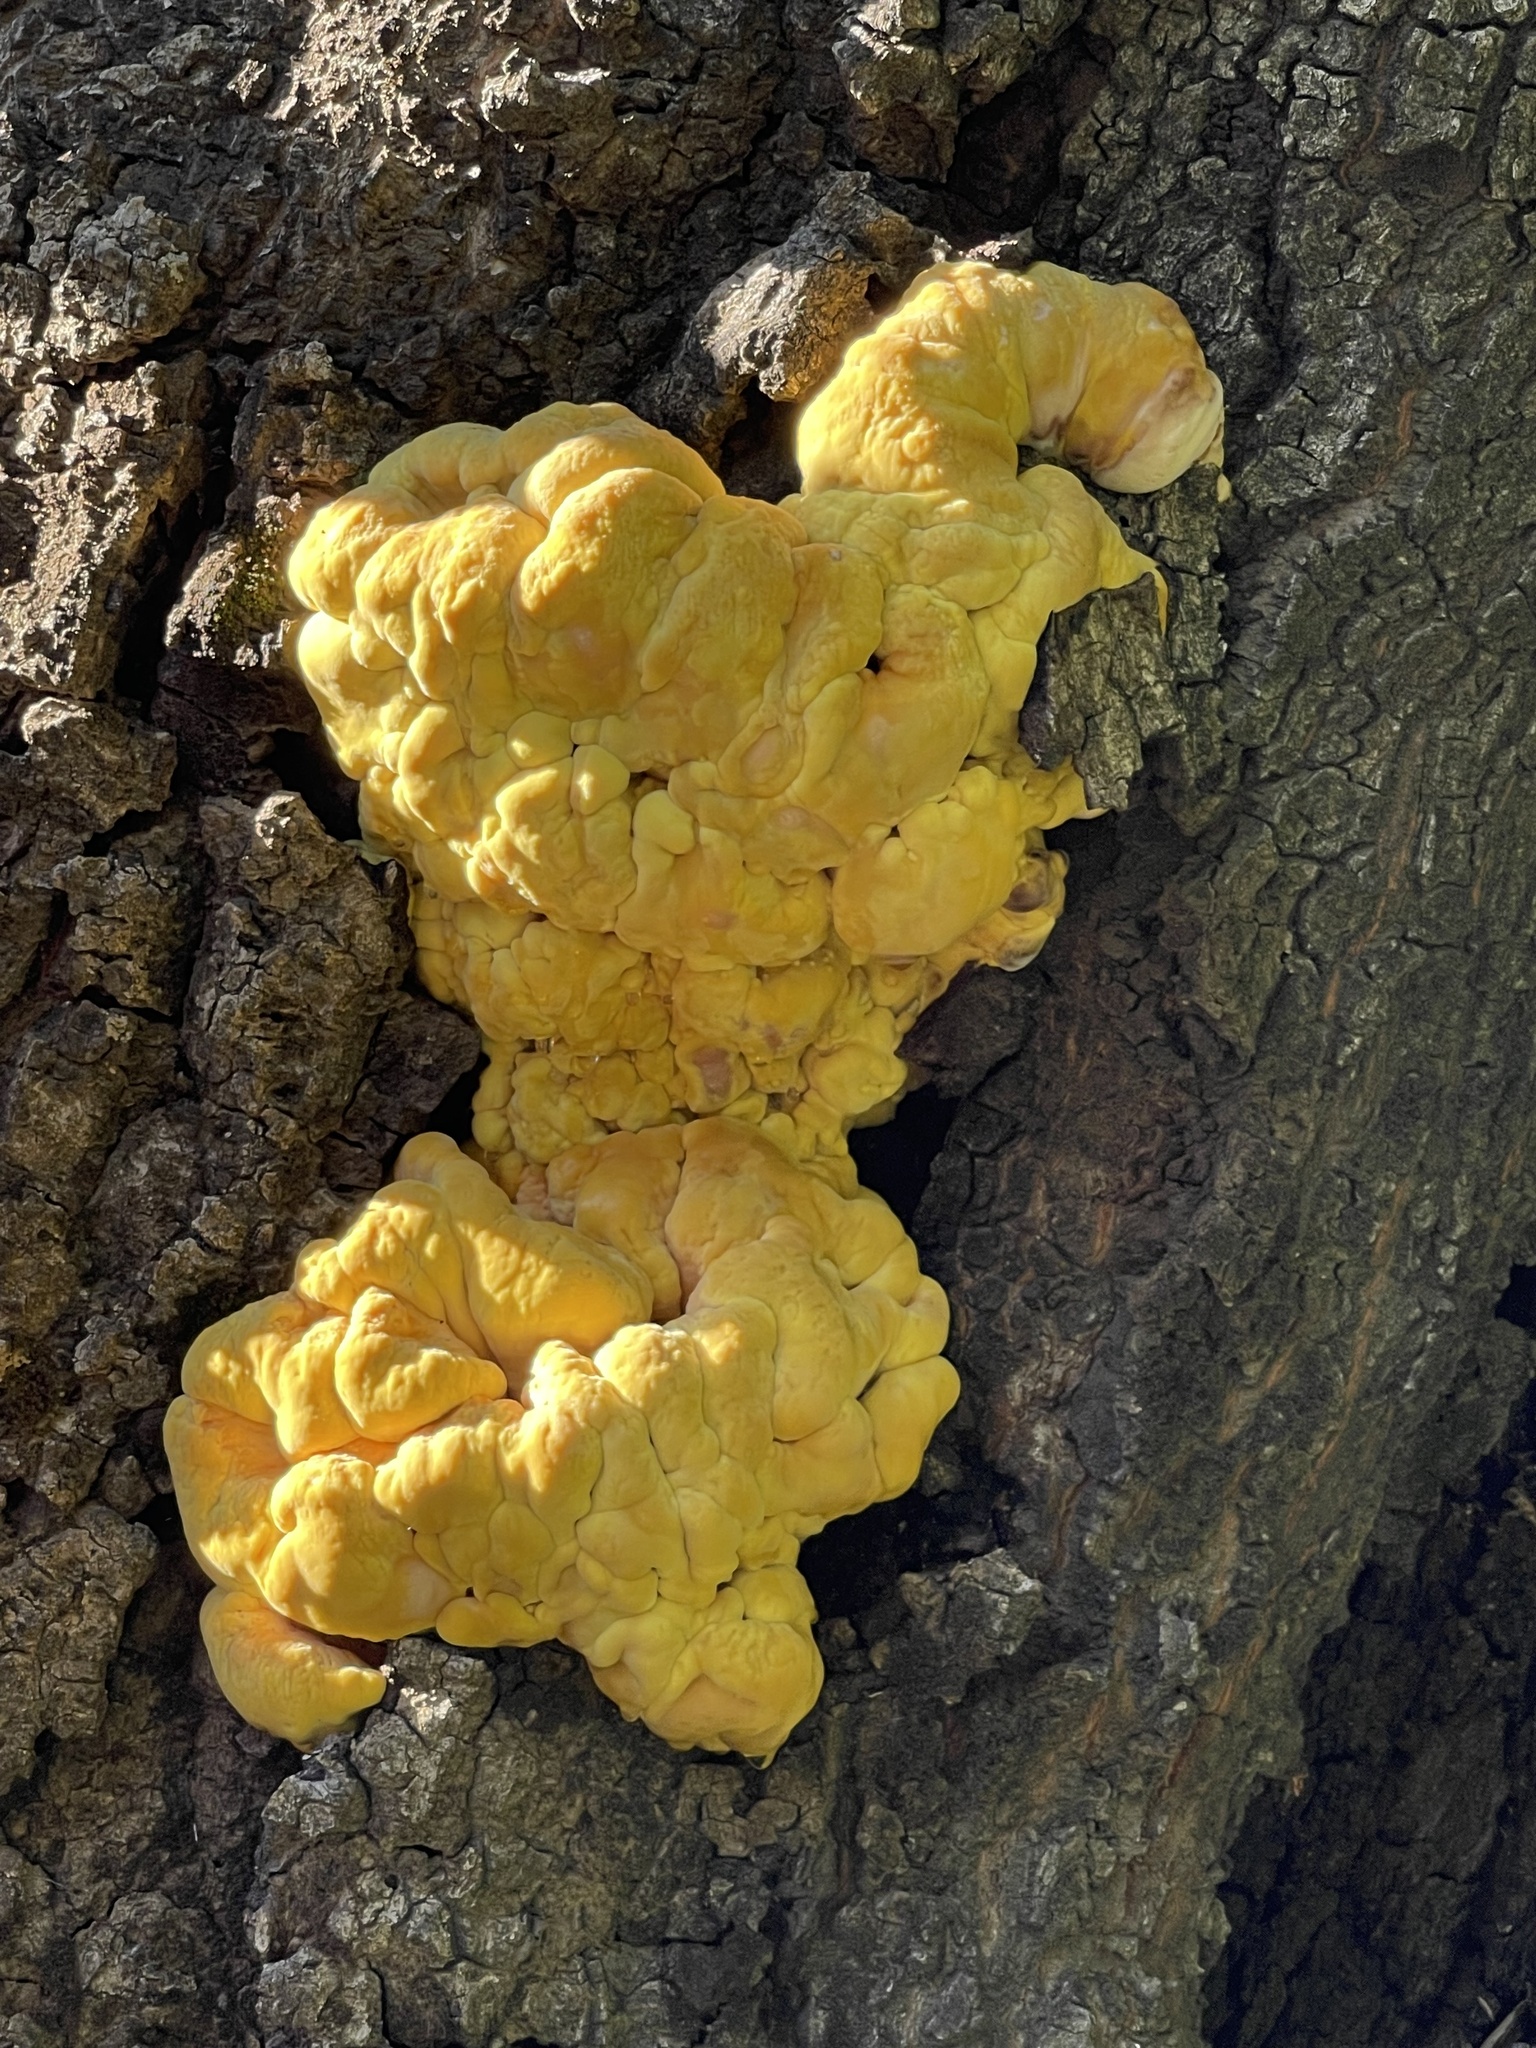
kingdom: Fungi
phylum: Basidiomycota
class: Agaricomycetes
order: Polyporales
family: Laetiporaceae
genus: Laetiporus
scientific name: Laetiporus gilbertsonii
